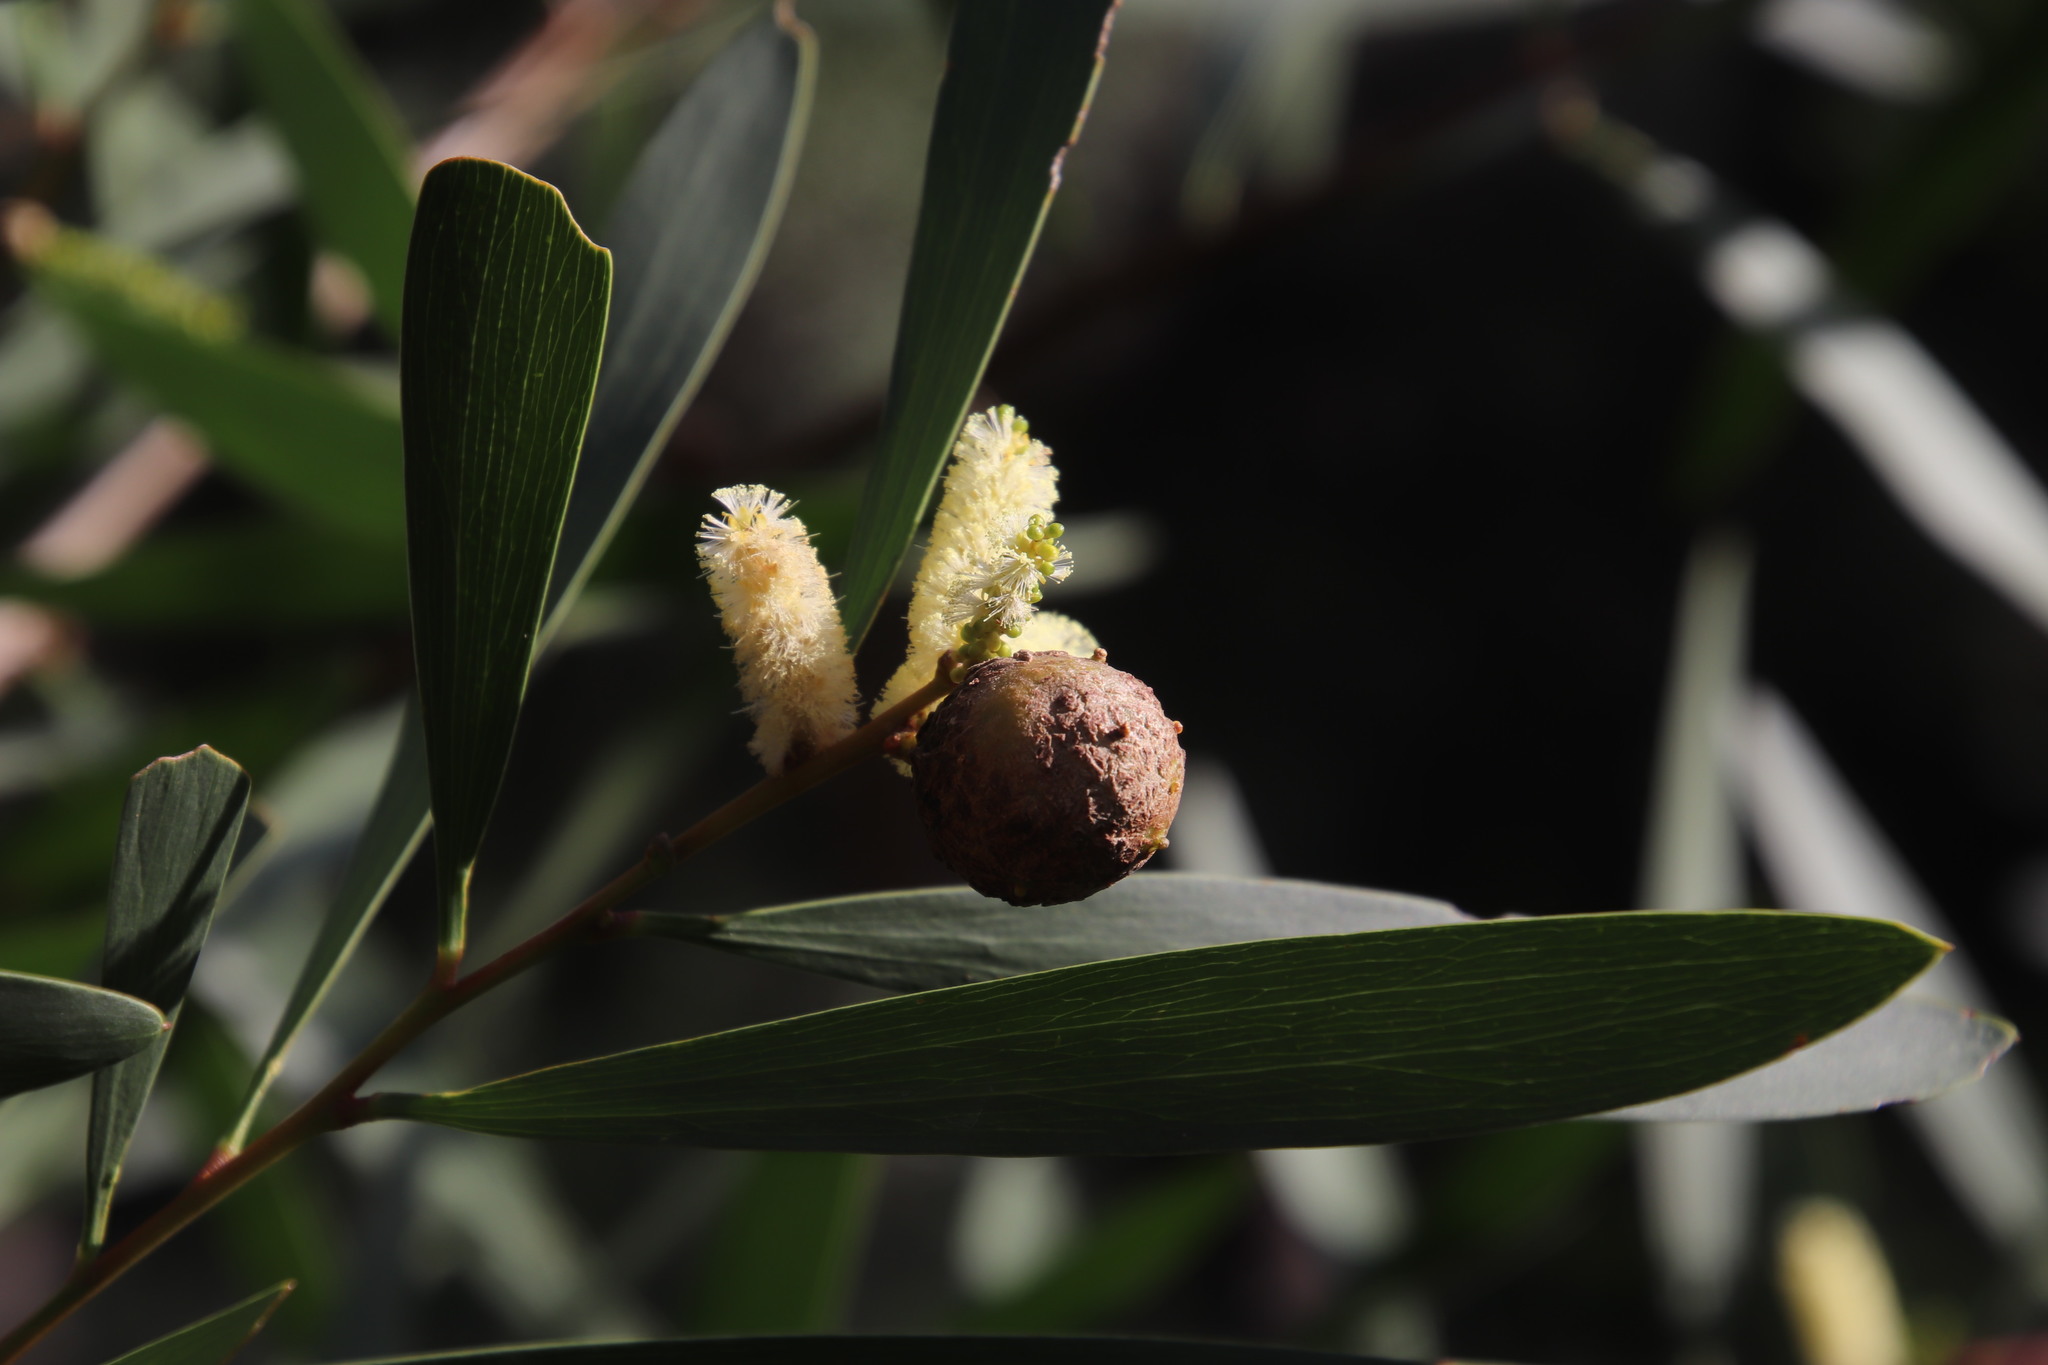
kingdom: Animalia
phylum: Arthropoda
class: Insecta
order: Hymenoptera
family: Pteromalidae
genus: Trichilogaster
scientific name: Trichilogaster acaciaelongifoliae
